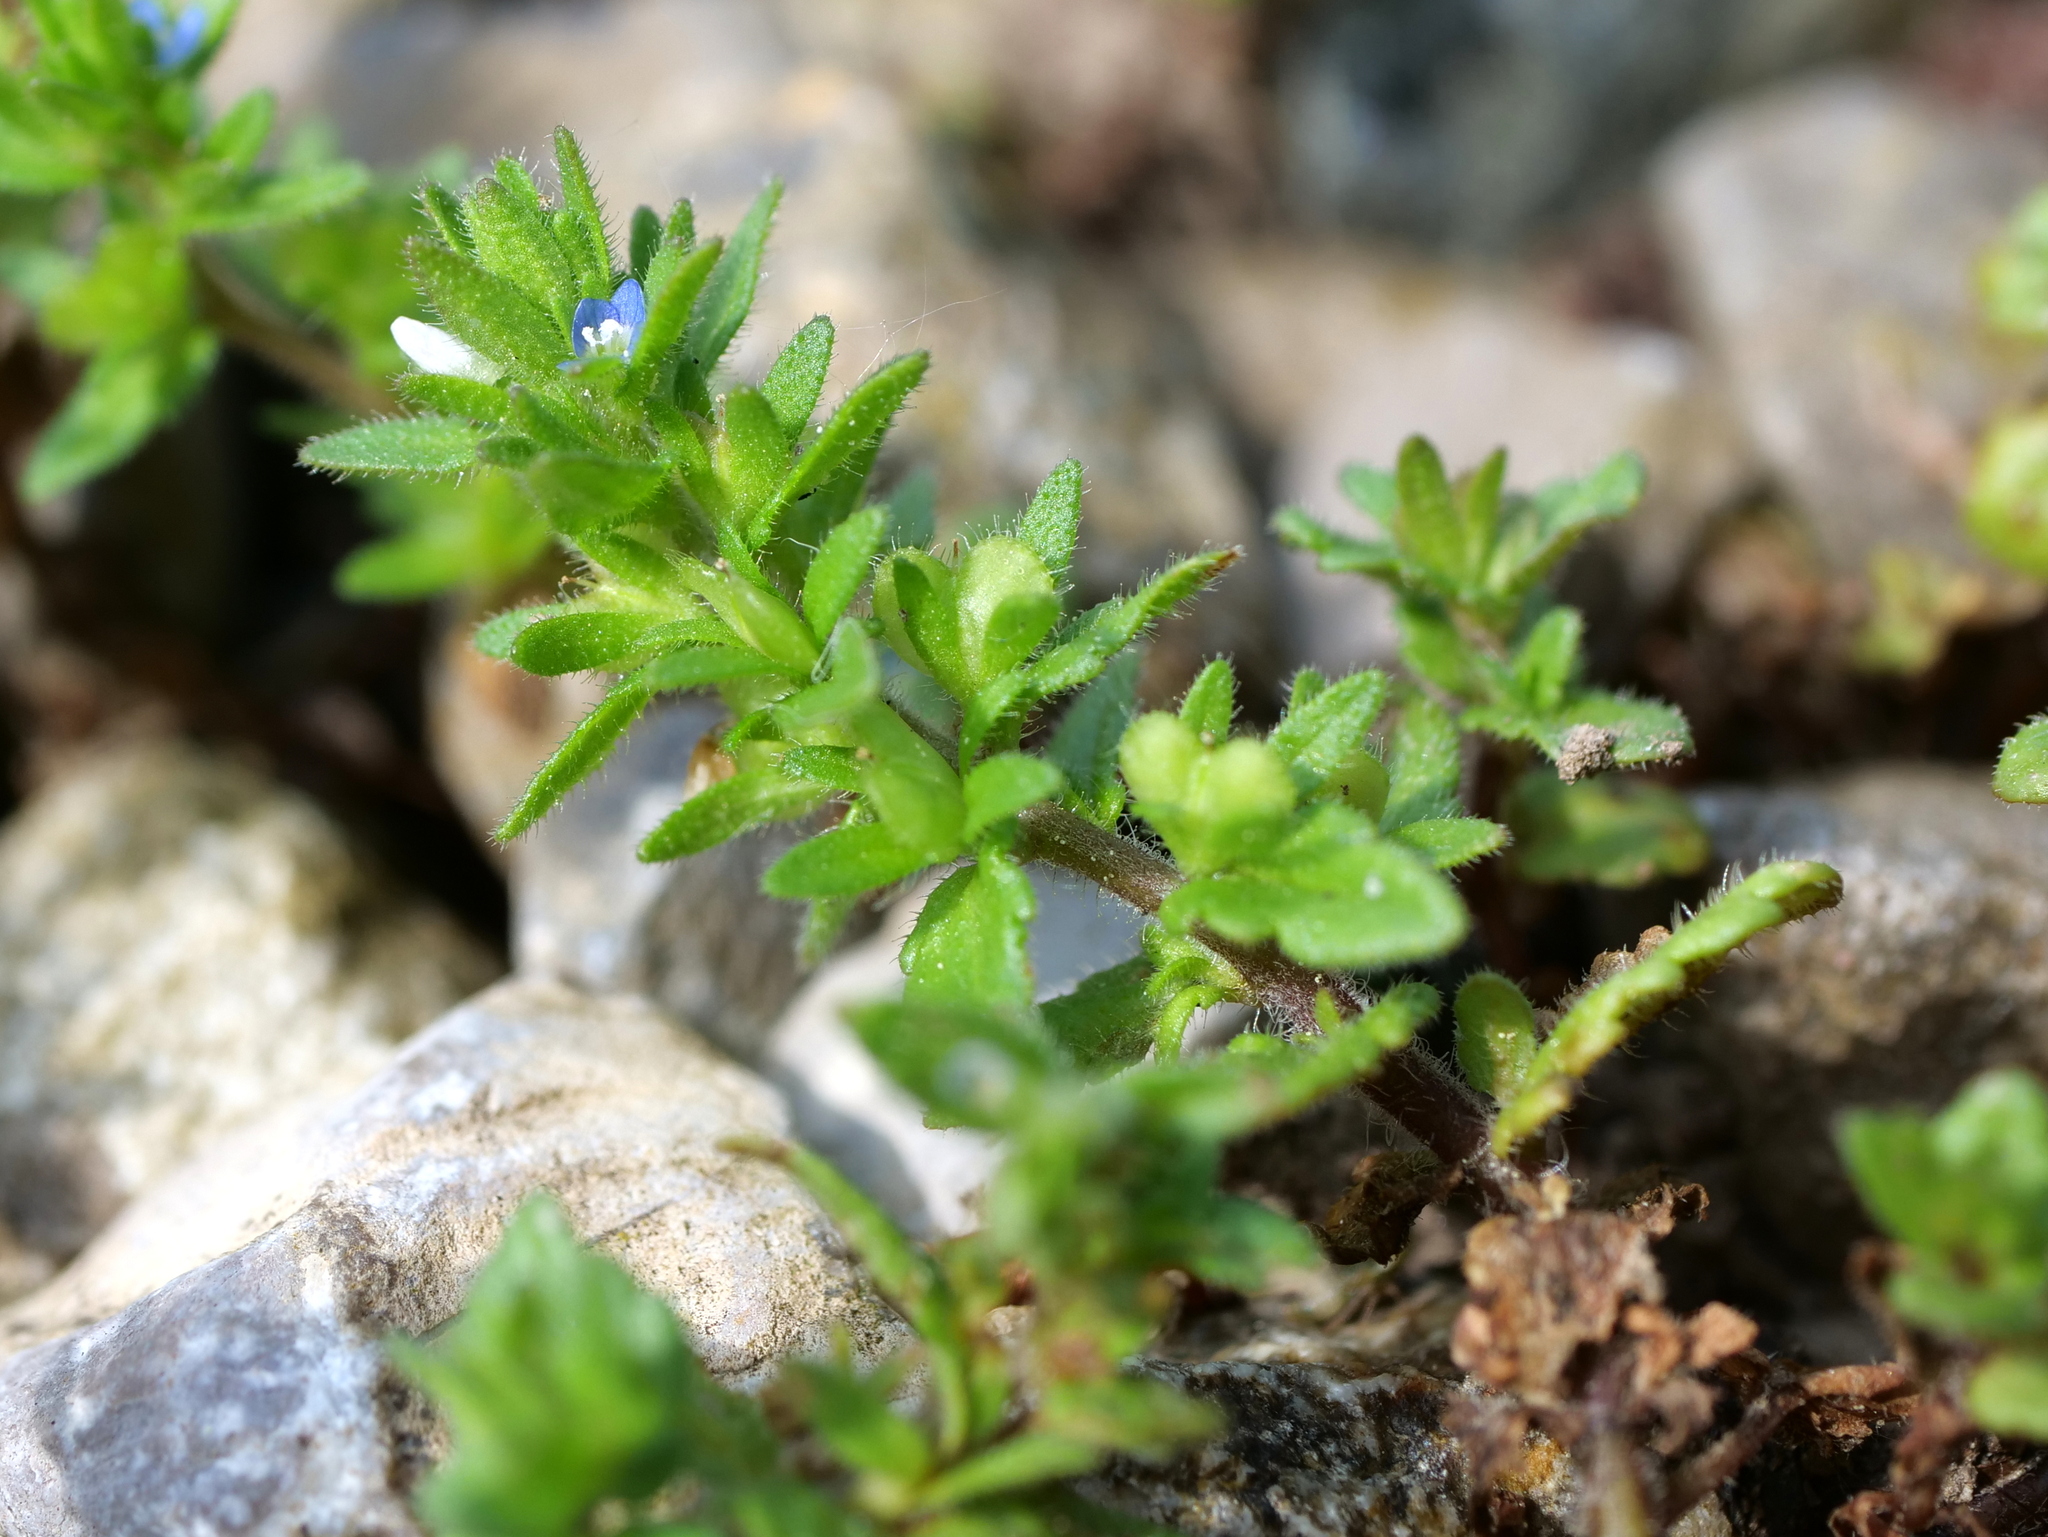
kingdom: Plantae
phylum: Tracheophyta
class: Magnoliopsida
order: Lamiales
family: Plantaginaceae
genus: Veronica
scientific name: Veronica arvensis
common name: Corn speedwell
